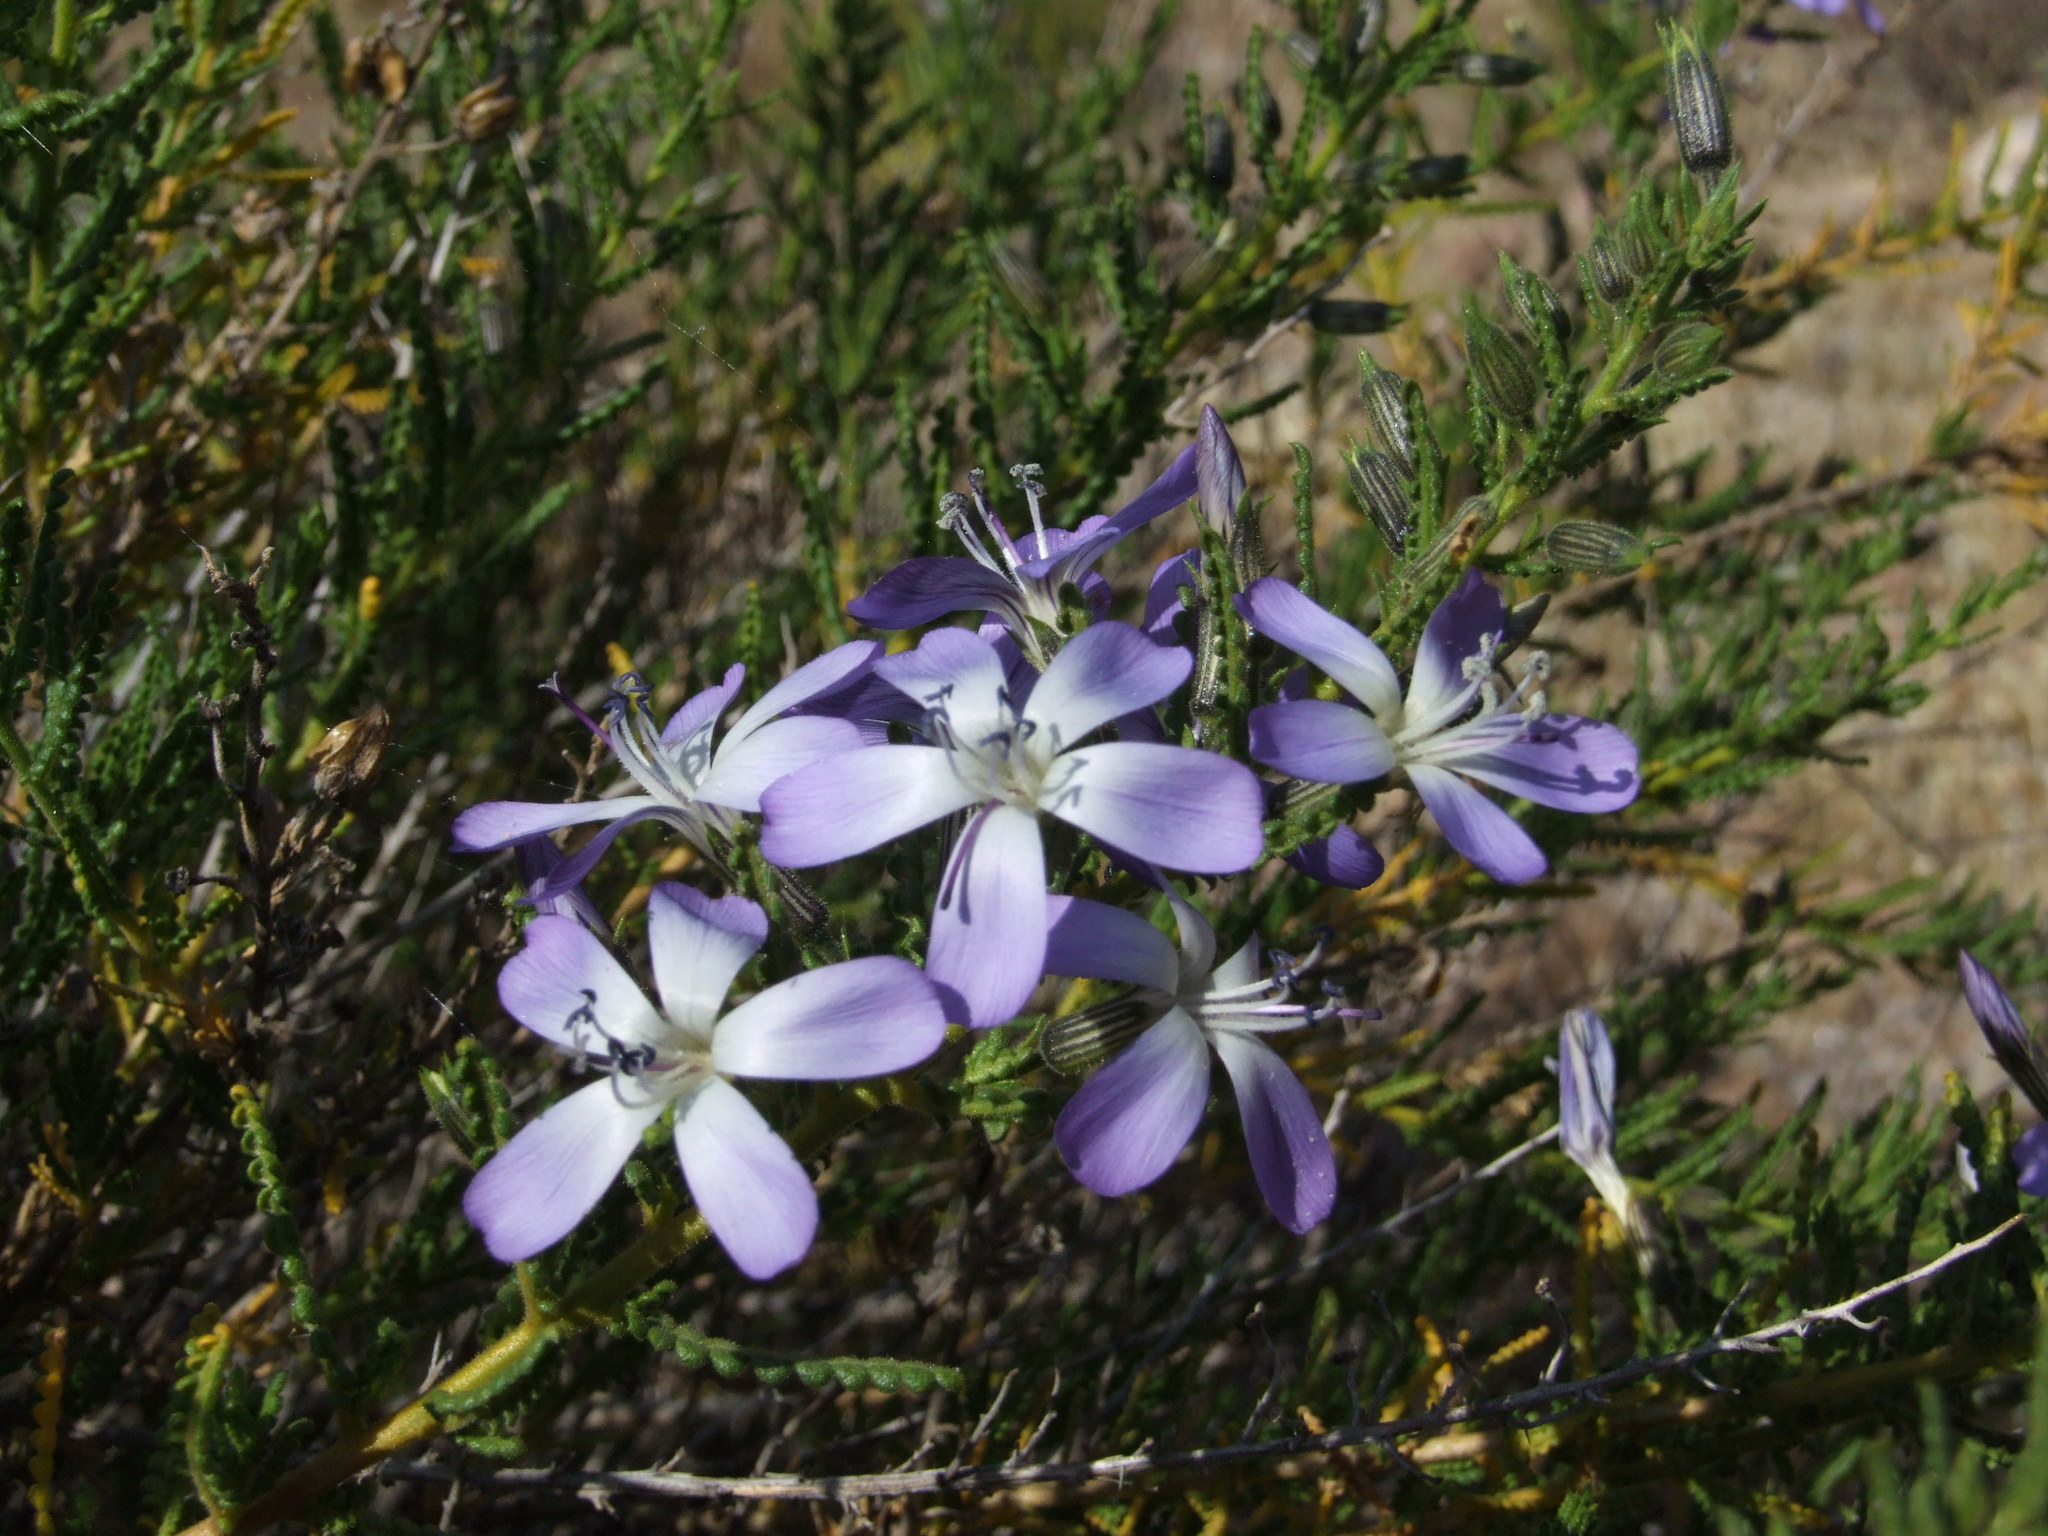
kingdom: Plantae
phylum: Tracheophyta
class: Magnoliopsida
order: Ericales
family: Polemoniaceae
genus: Cantua
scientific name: Cantua volcanica
